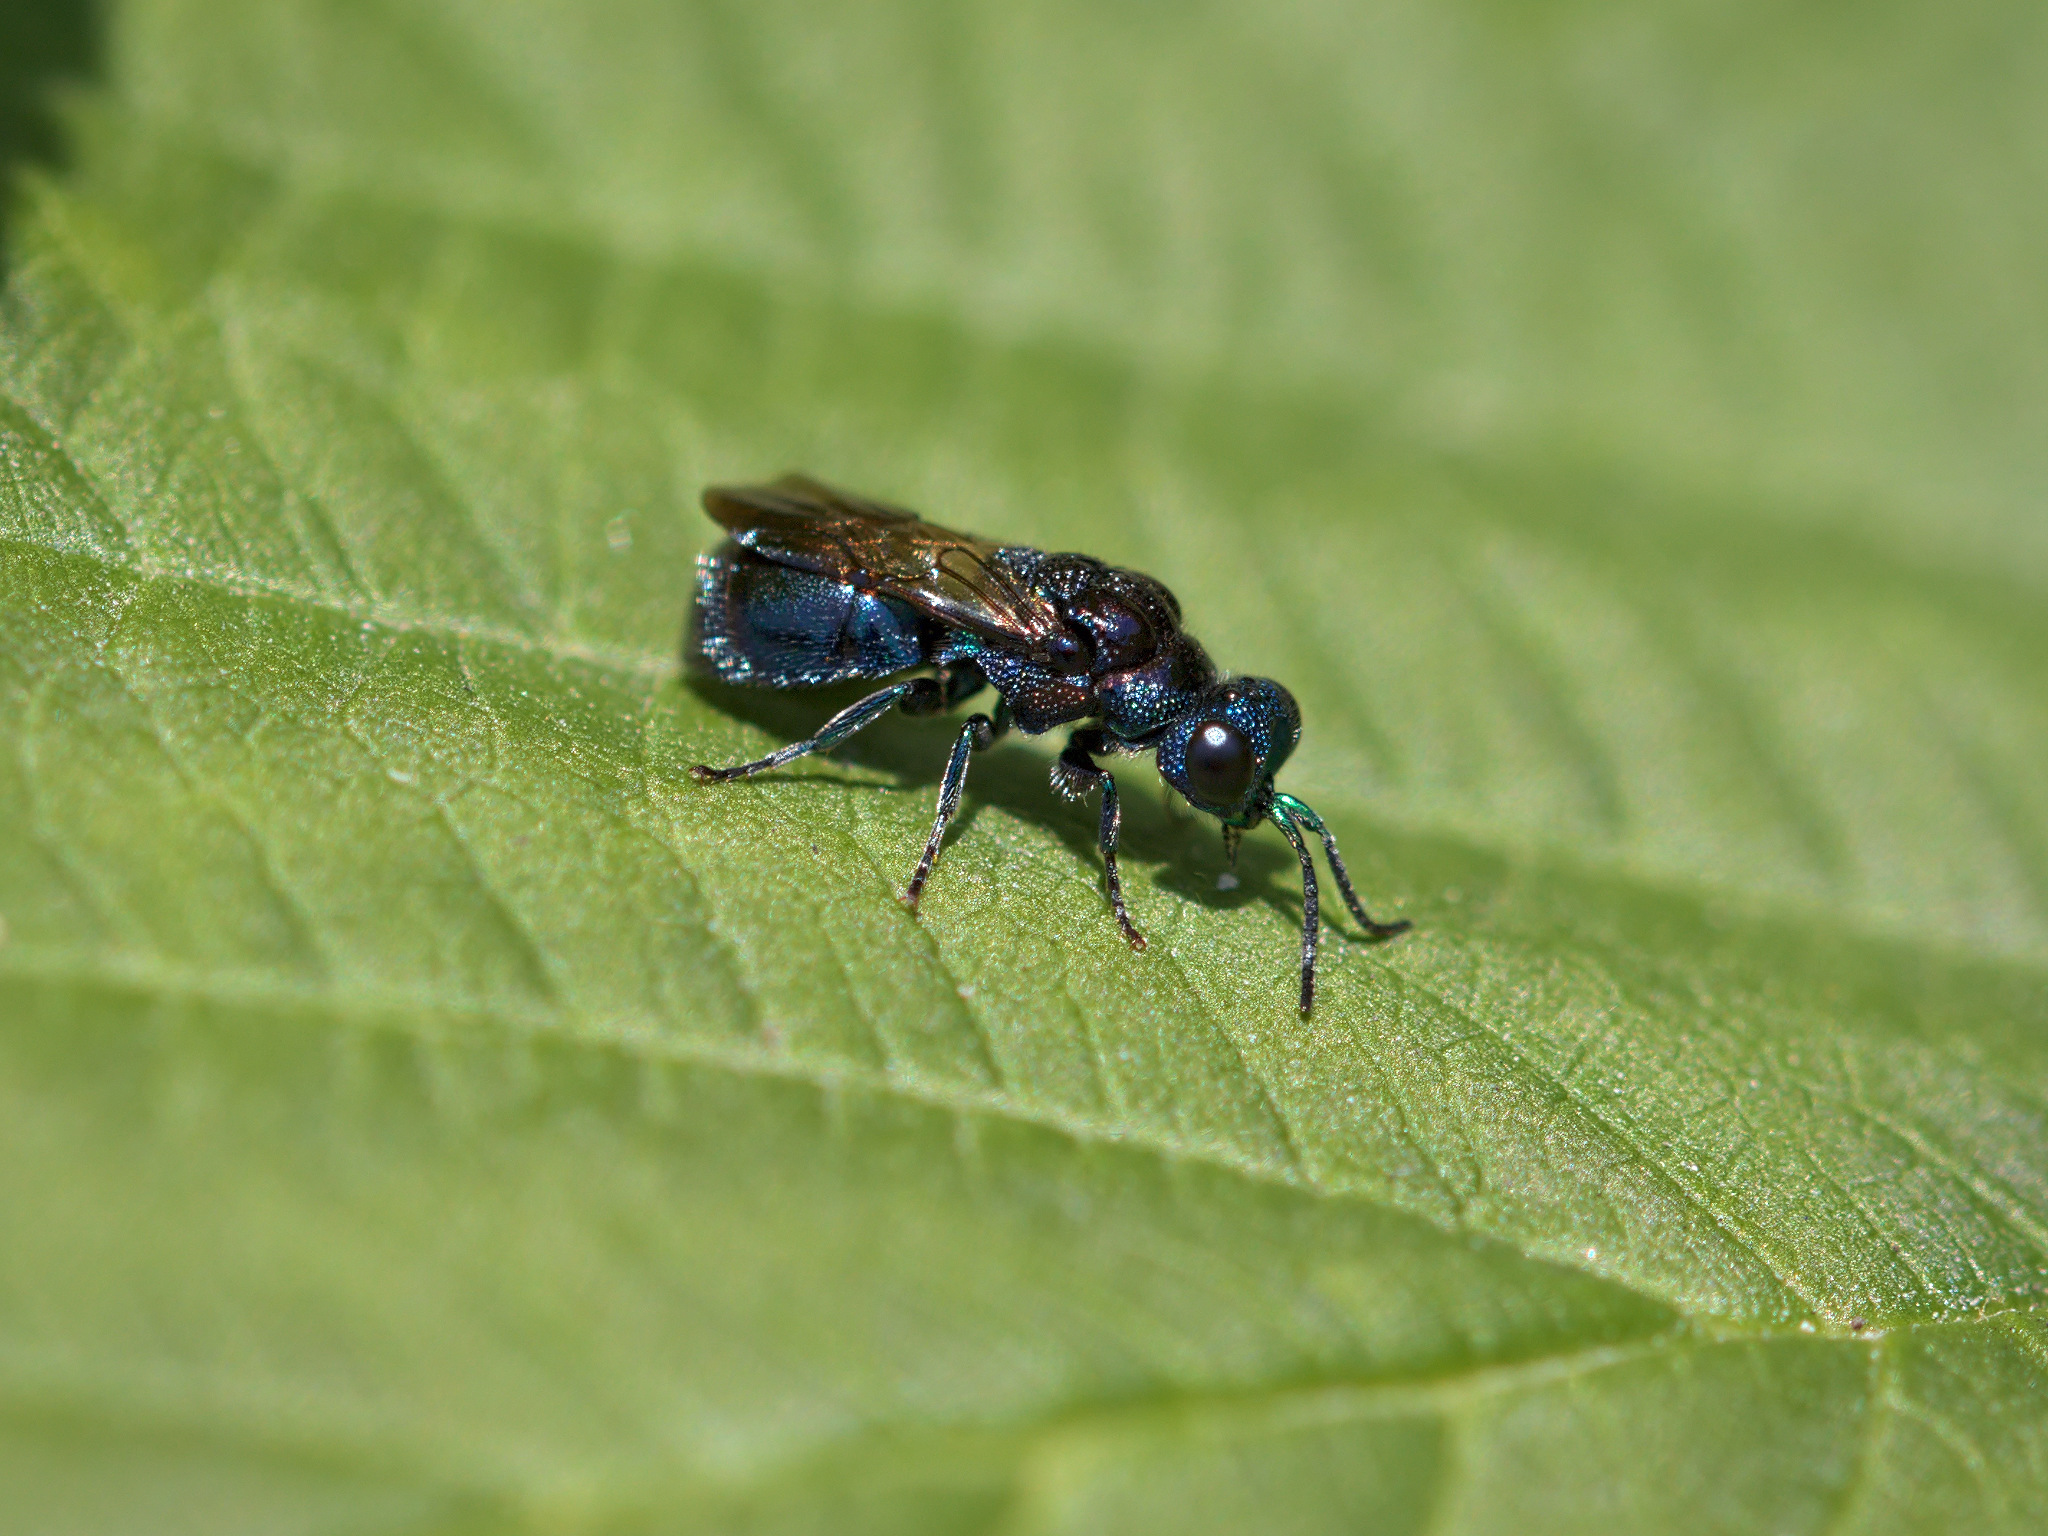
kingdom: Animalia
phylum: Arthropoda
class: Insecta
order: Hymenoptera
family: Chrysididae
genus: Pseudomalus
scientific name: Pseudomalus
